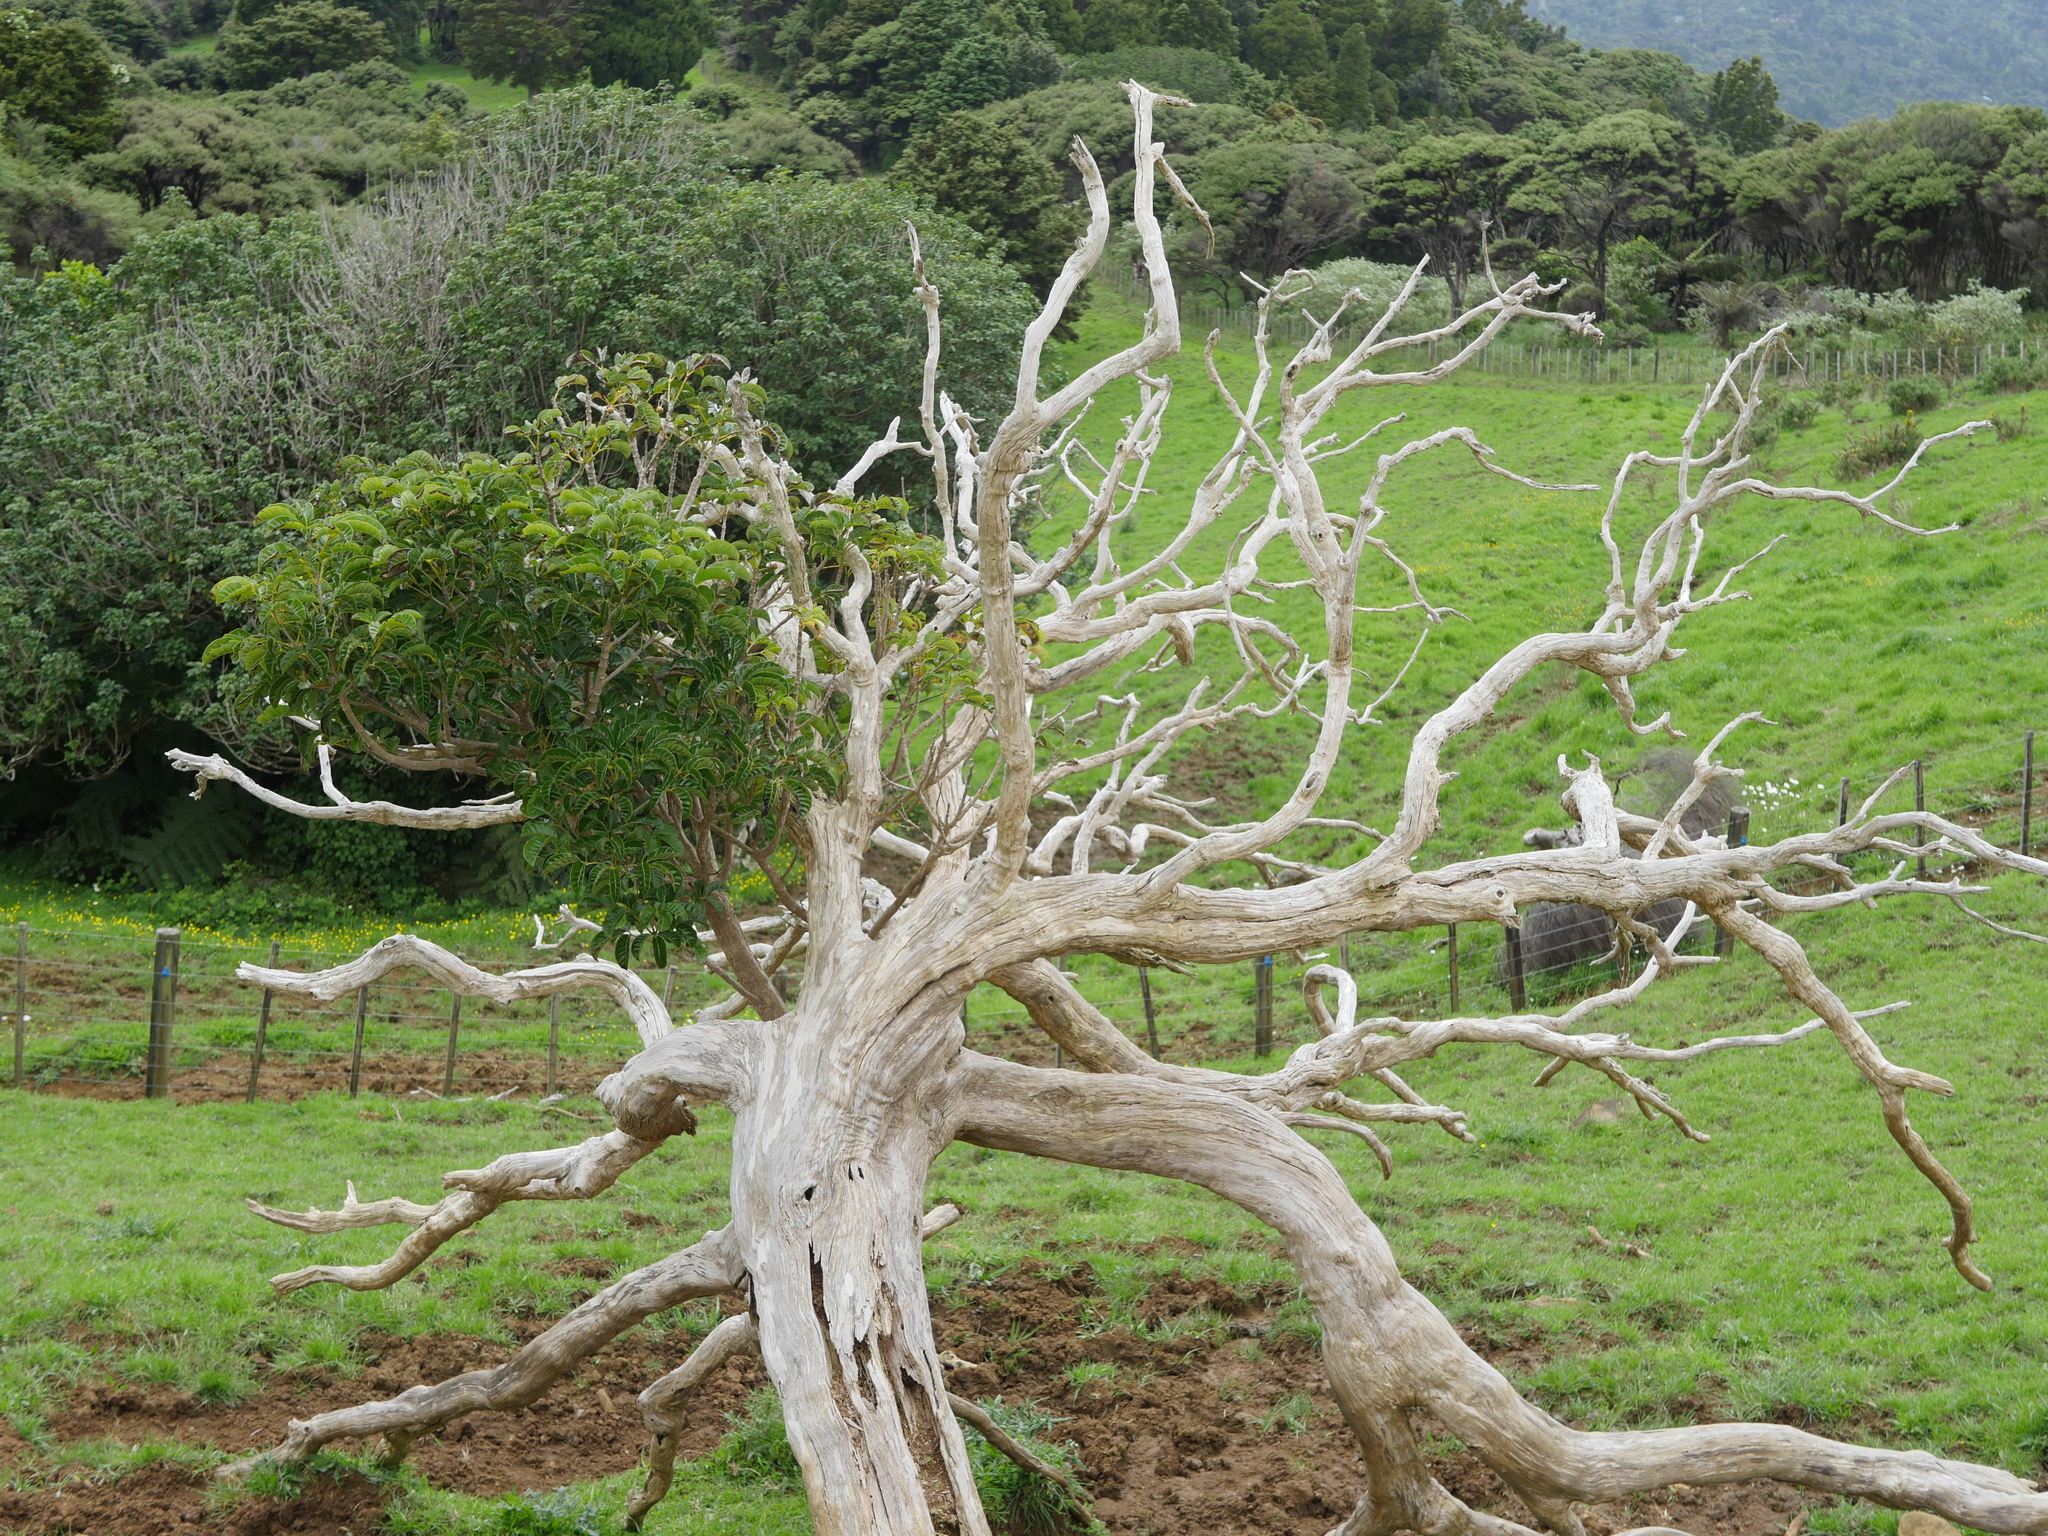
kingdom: Plantae
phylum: Tracheophyta
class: Magnoliopsida
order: Lamiales
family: Lamiaceae
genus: Vitex
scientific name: Vitex lucens
